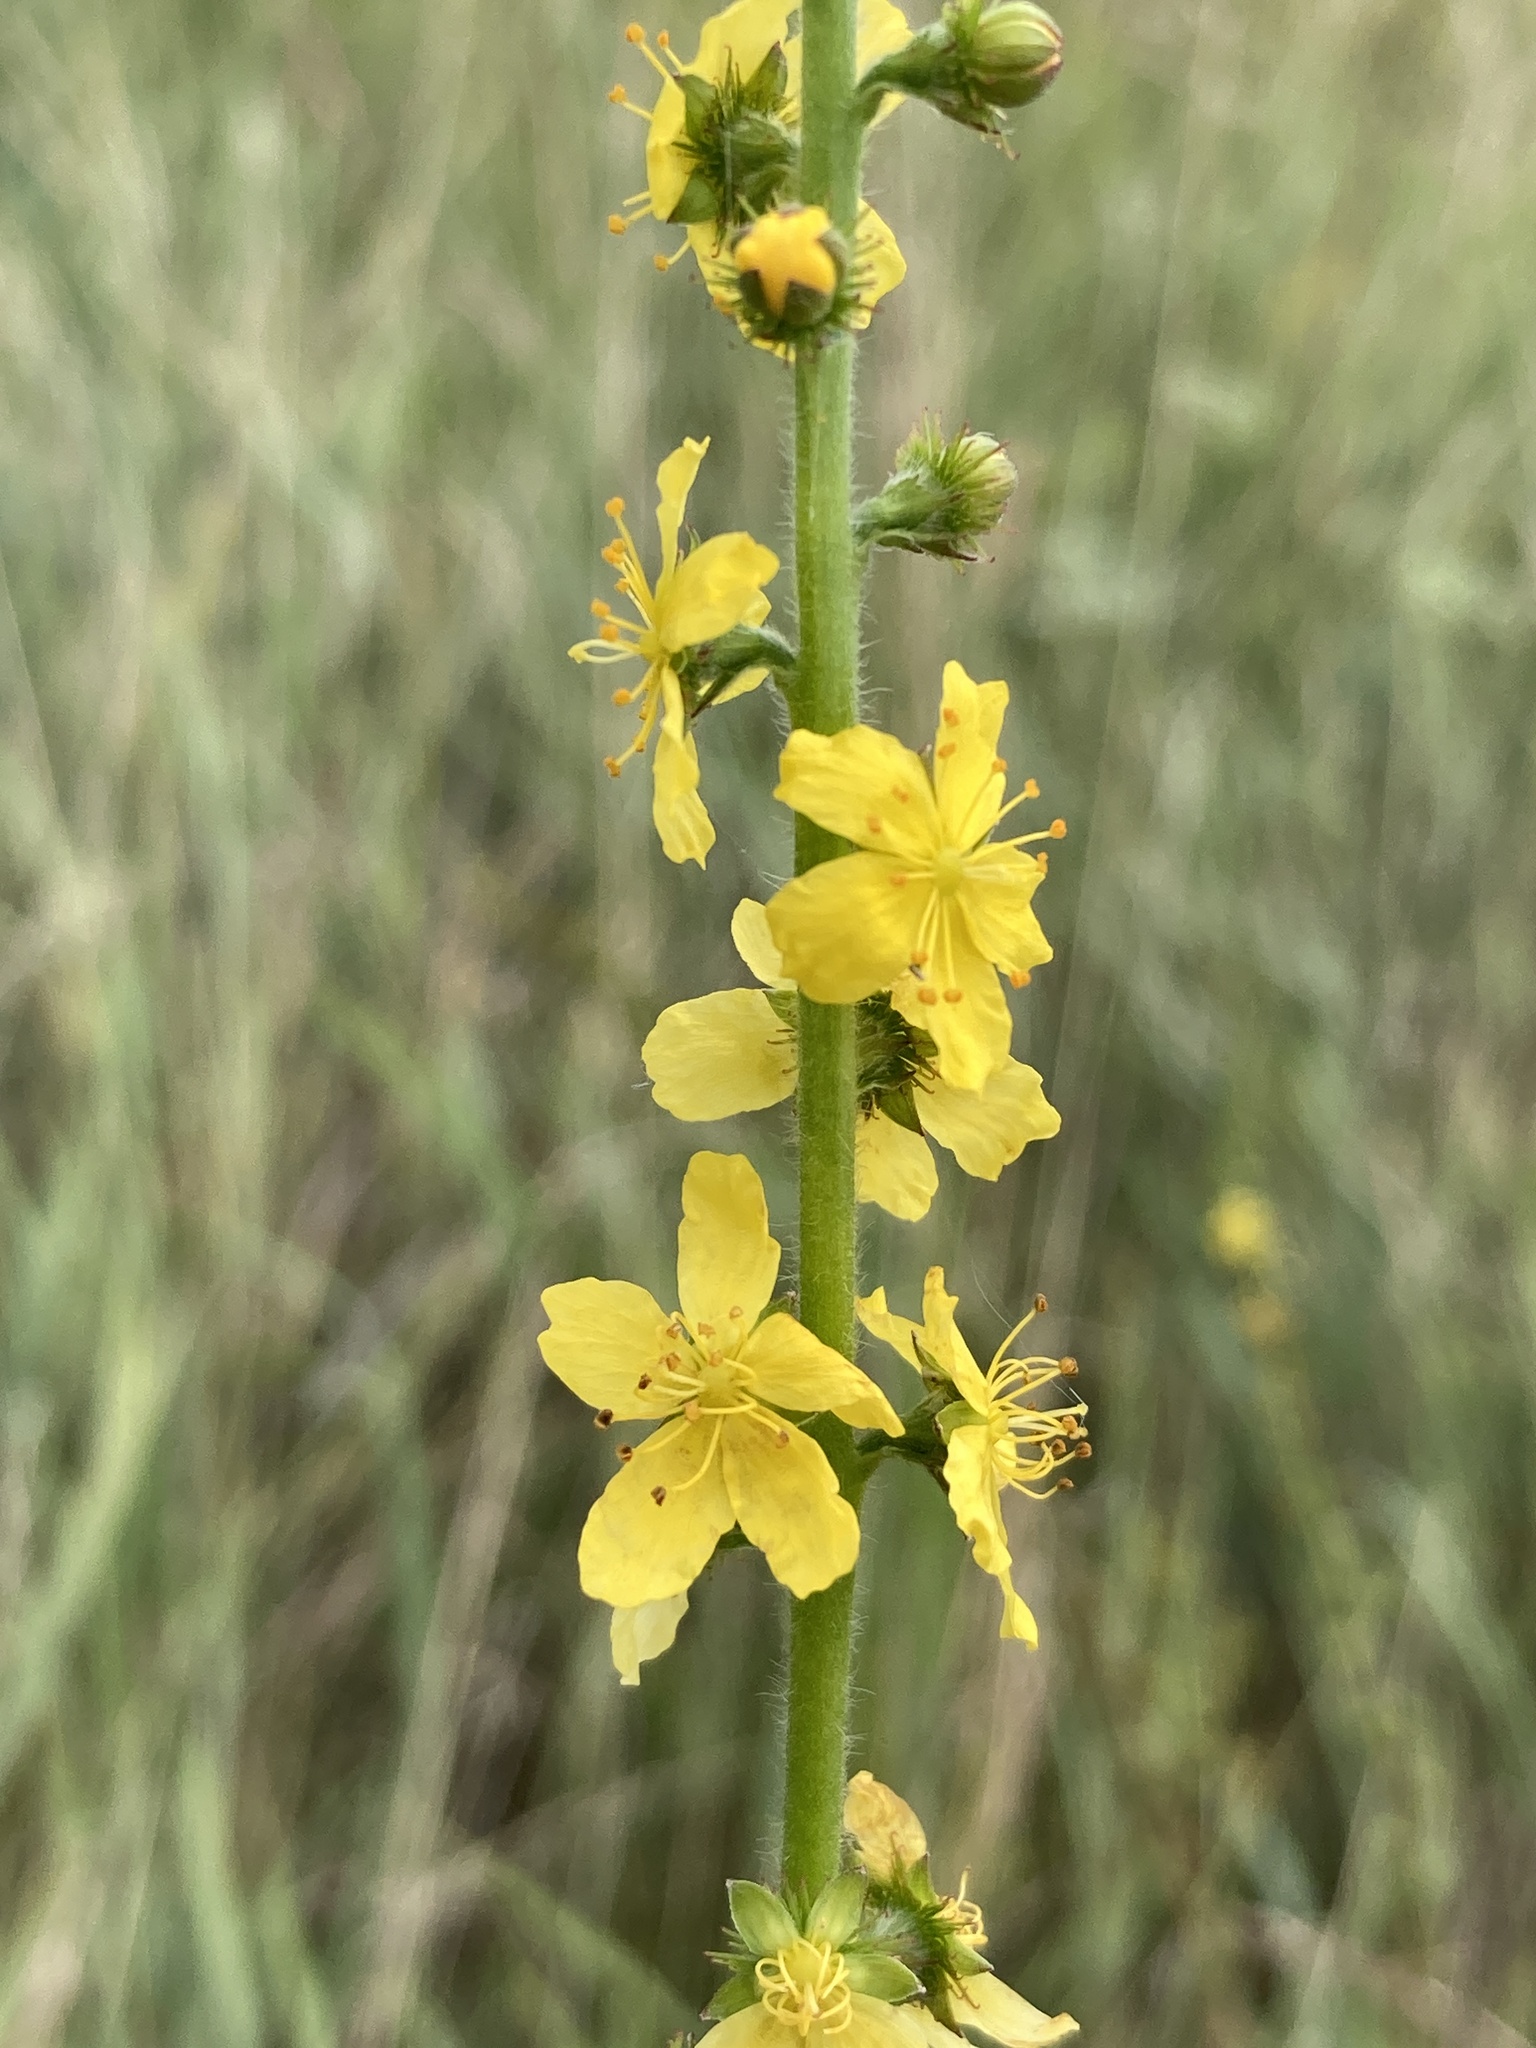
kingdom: Plantae
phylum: Tracheophyta
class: Magnoliopsida
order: Rosales
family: Rosaceae
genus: Agrimonia
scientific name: Agrimonia eupatoria
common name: Agrimony
